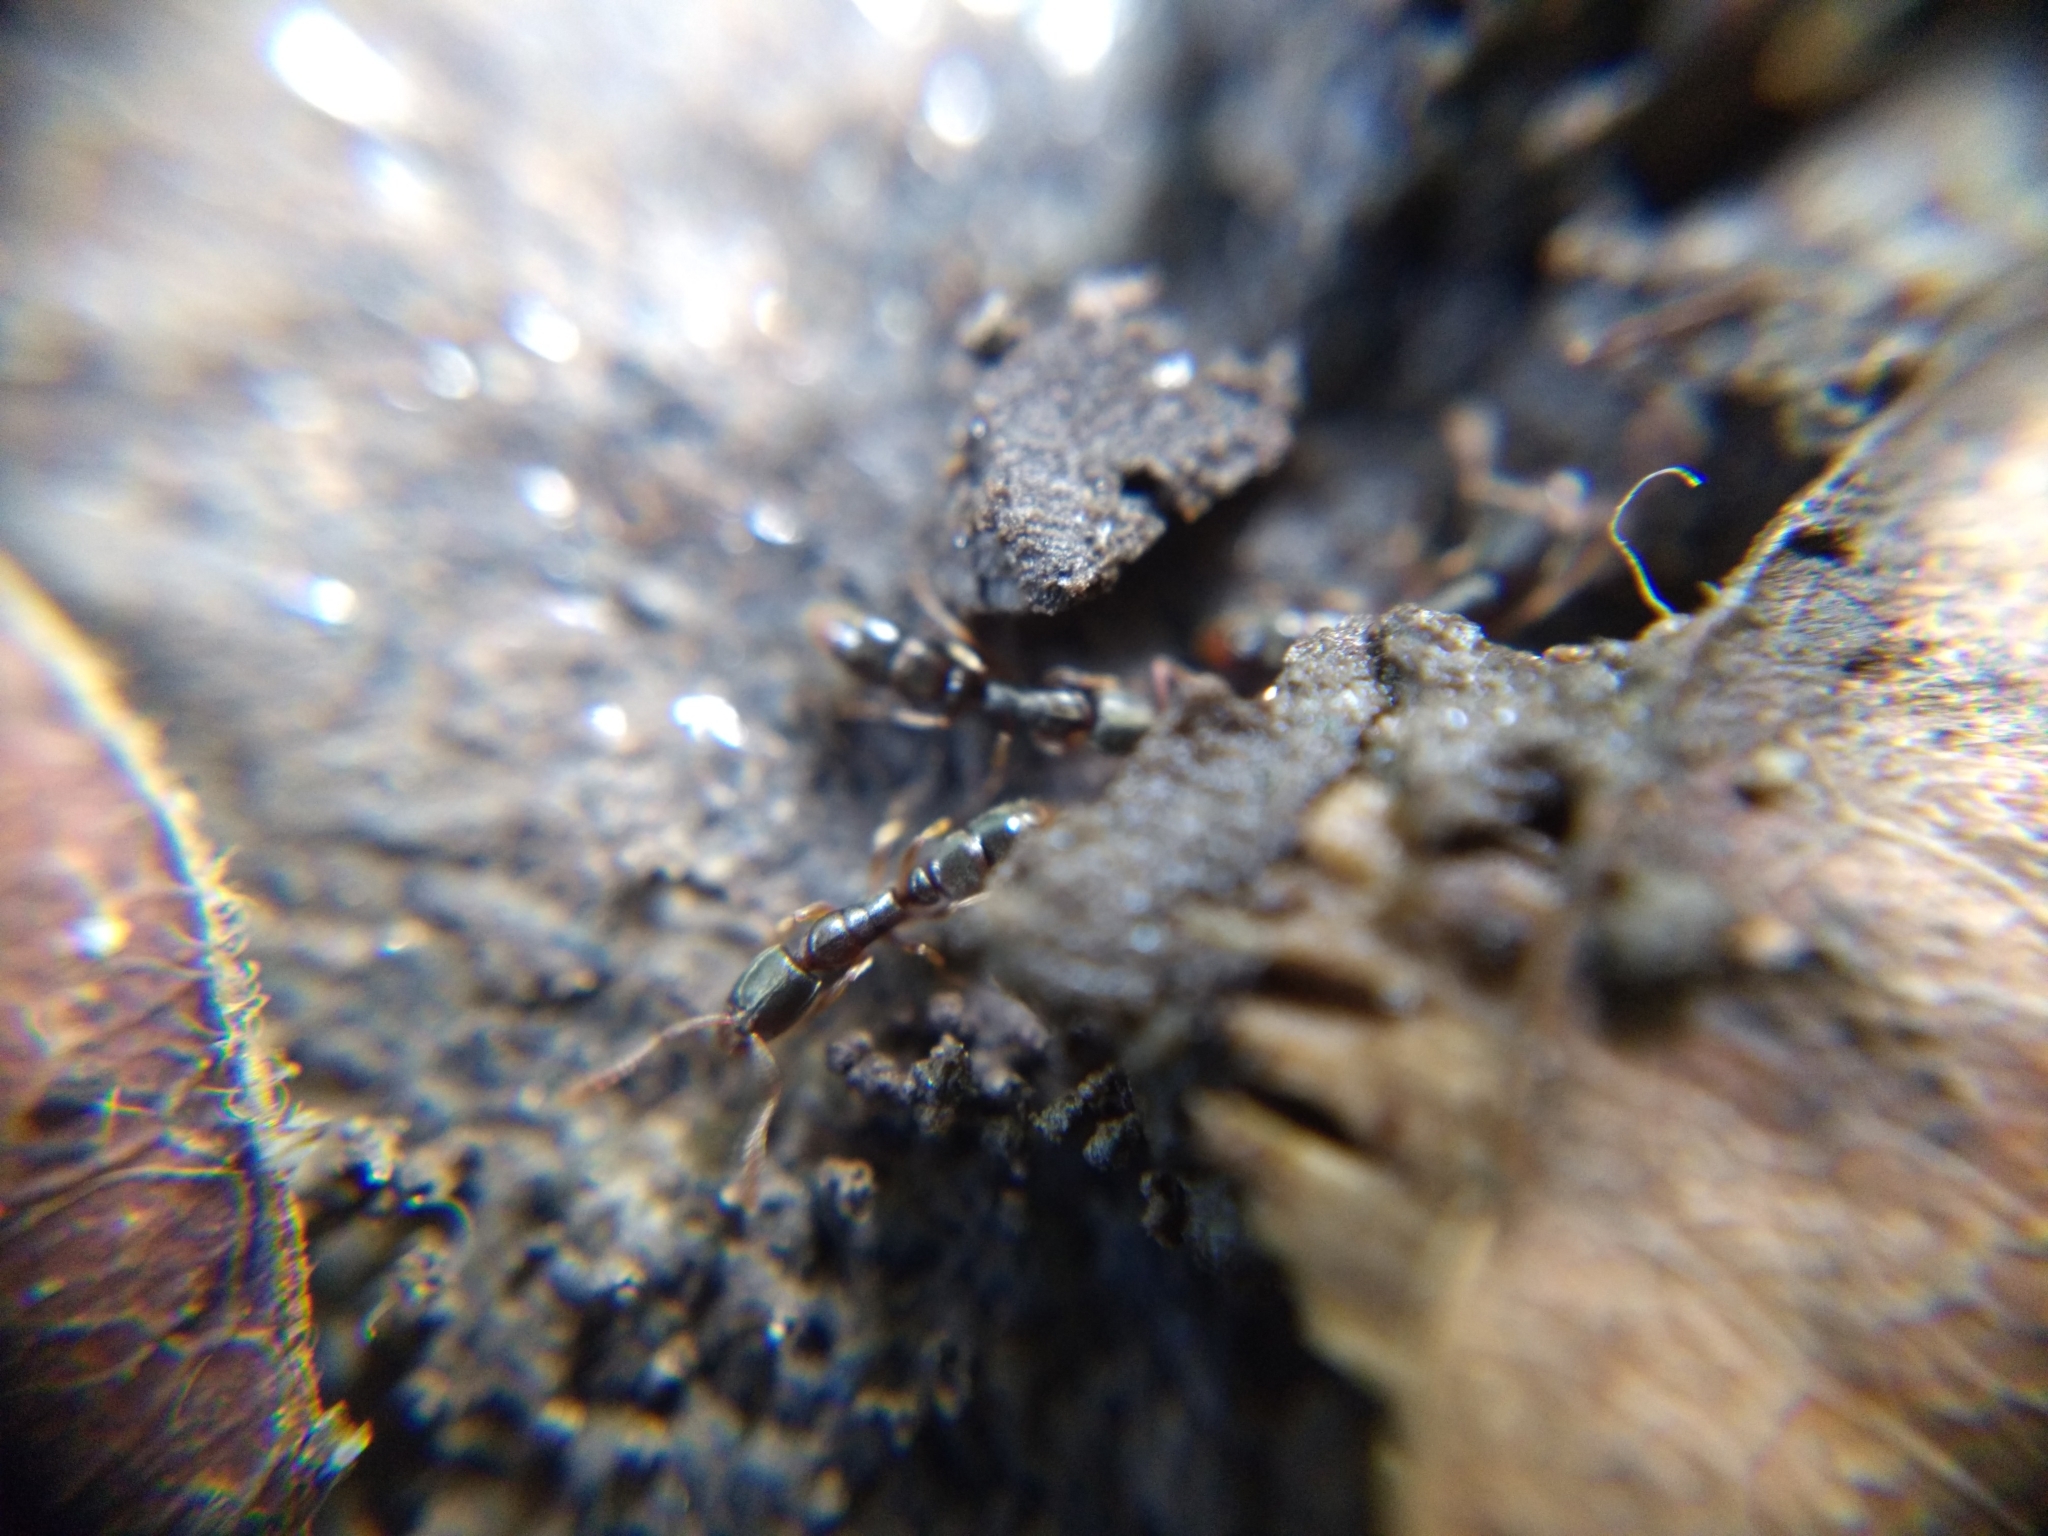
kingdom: Animalia
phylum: Arthropoda
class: Insecta
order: Hymenoptera
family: Formicidae
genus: Ponera
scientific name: Ponera pennsylvanica
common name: Pennsylvania ponera
